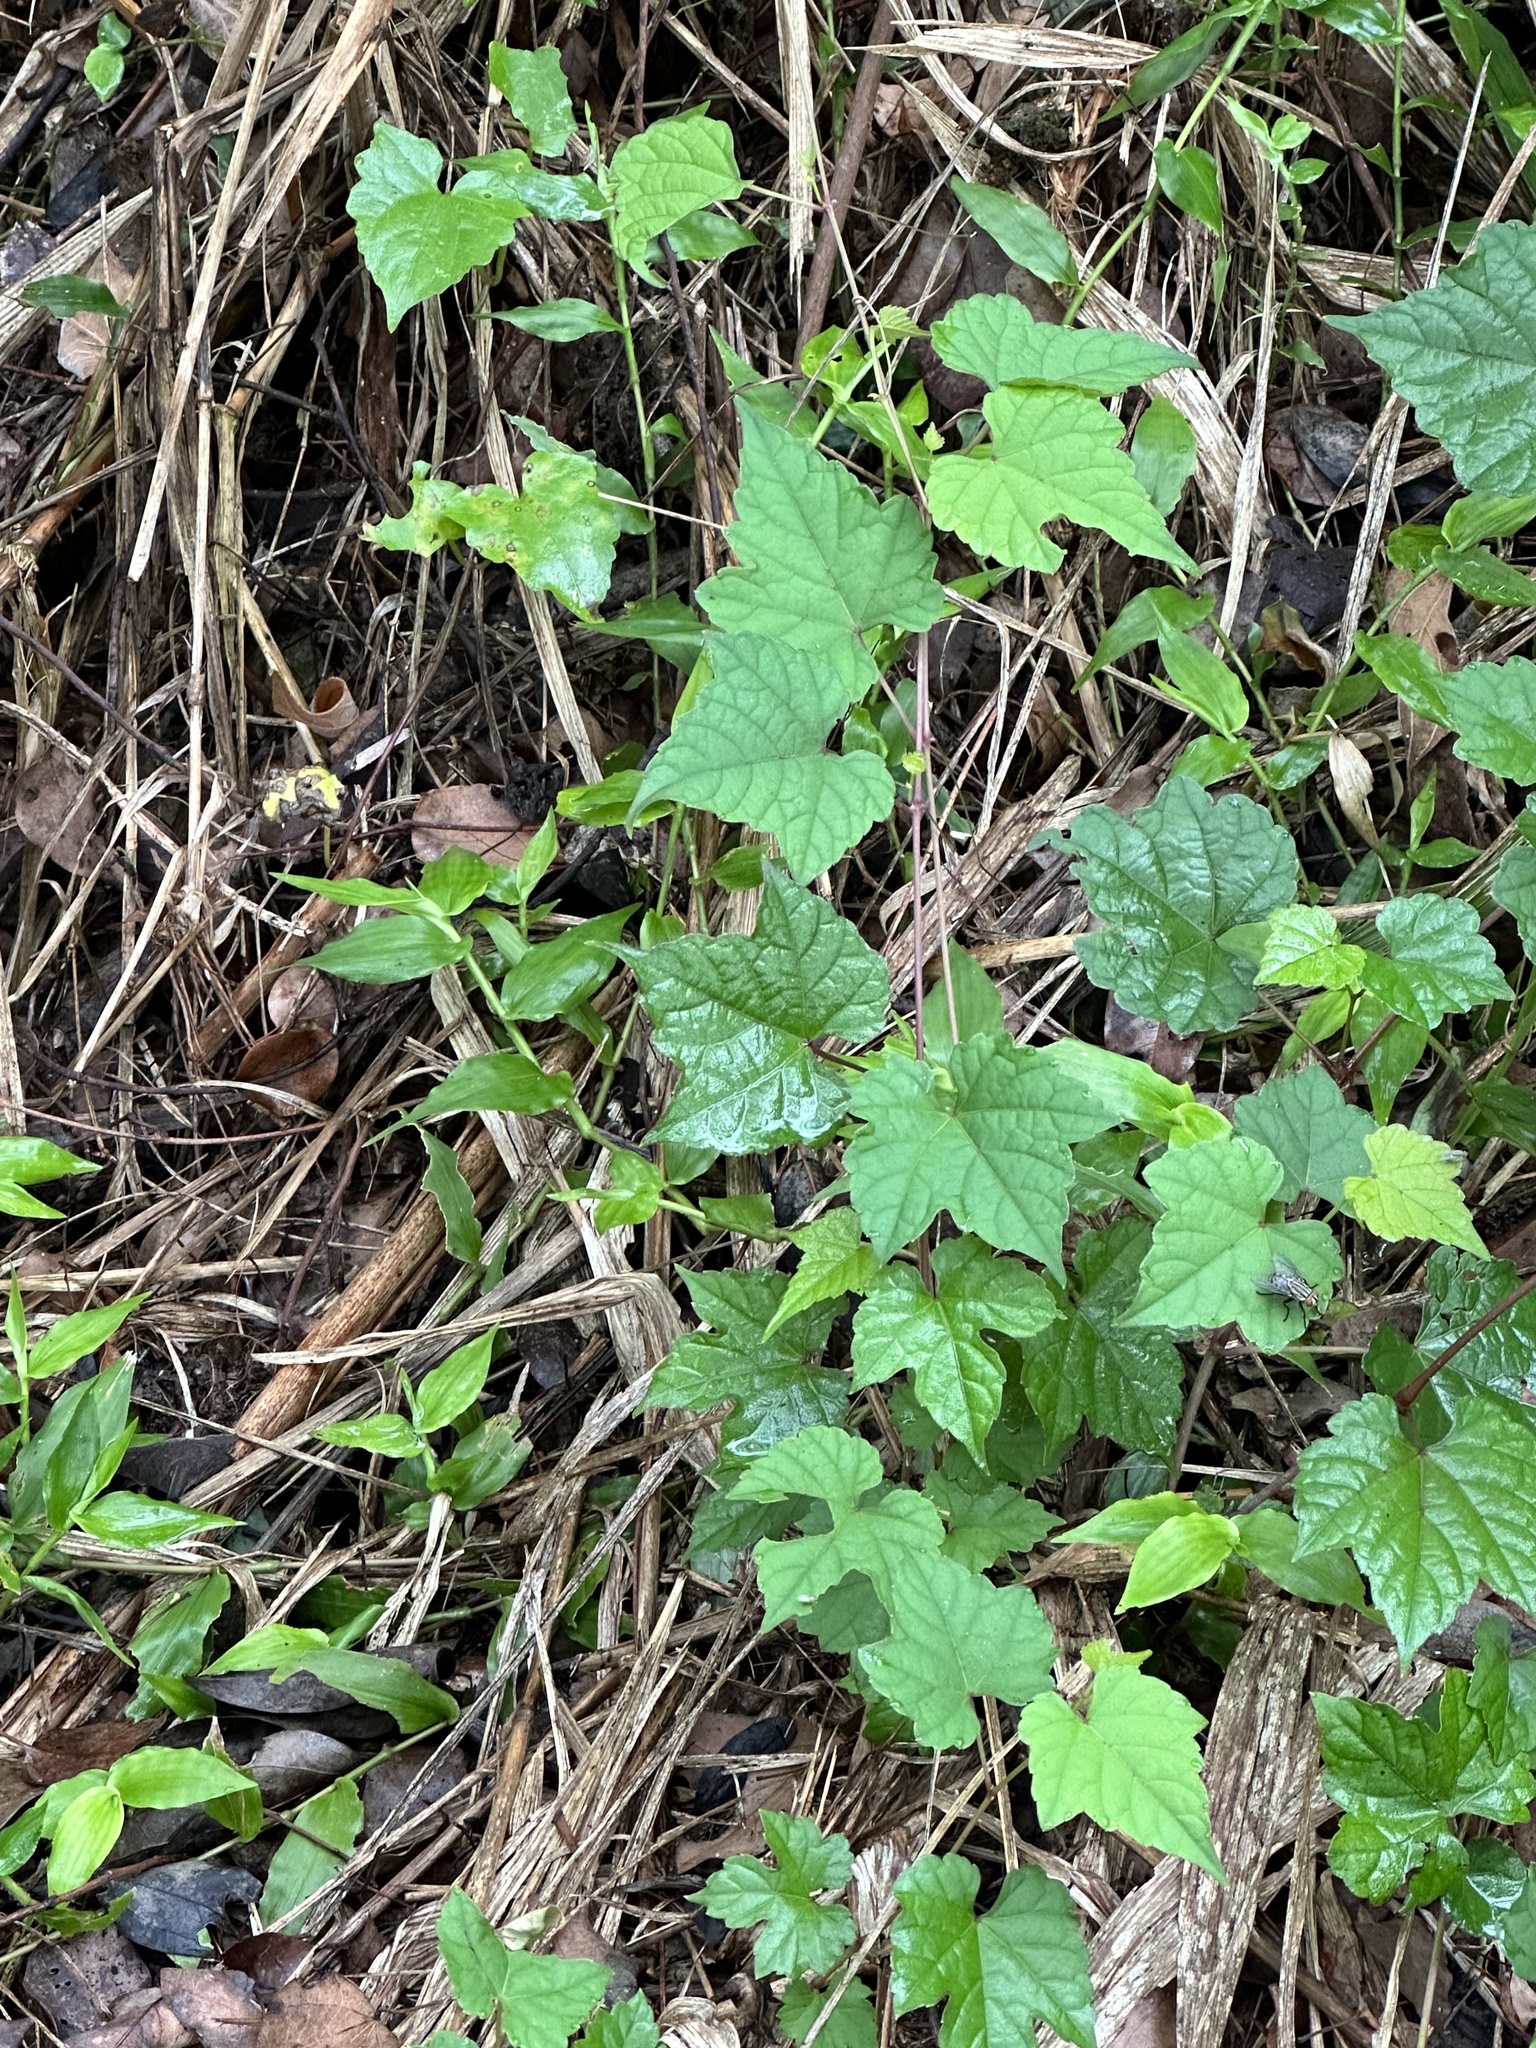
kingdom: Plantae
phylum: Tracheophyta
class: Magnoliopsida
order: Vitales
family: Vitaceae
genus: Ampelopsis
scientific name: Ampelopsis glandulosa
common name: Amur peppervine
